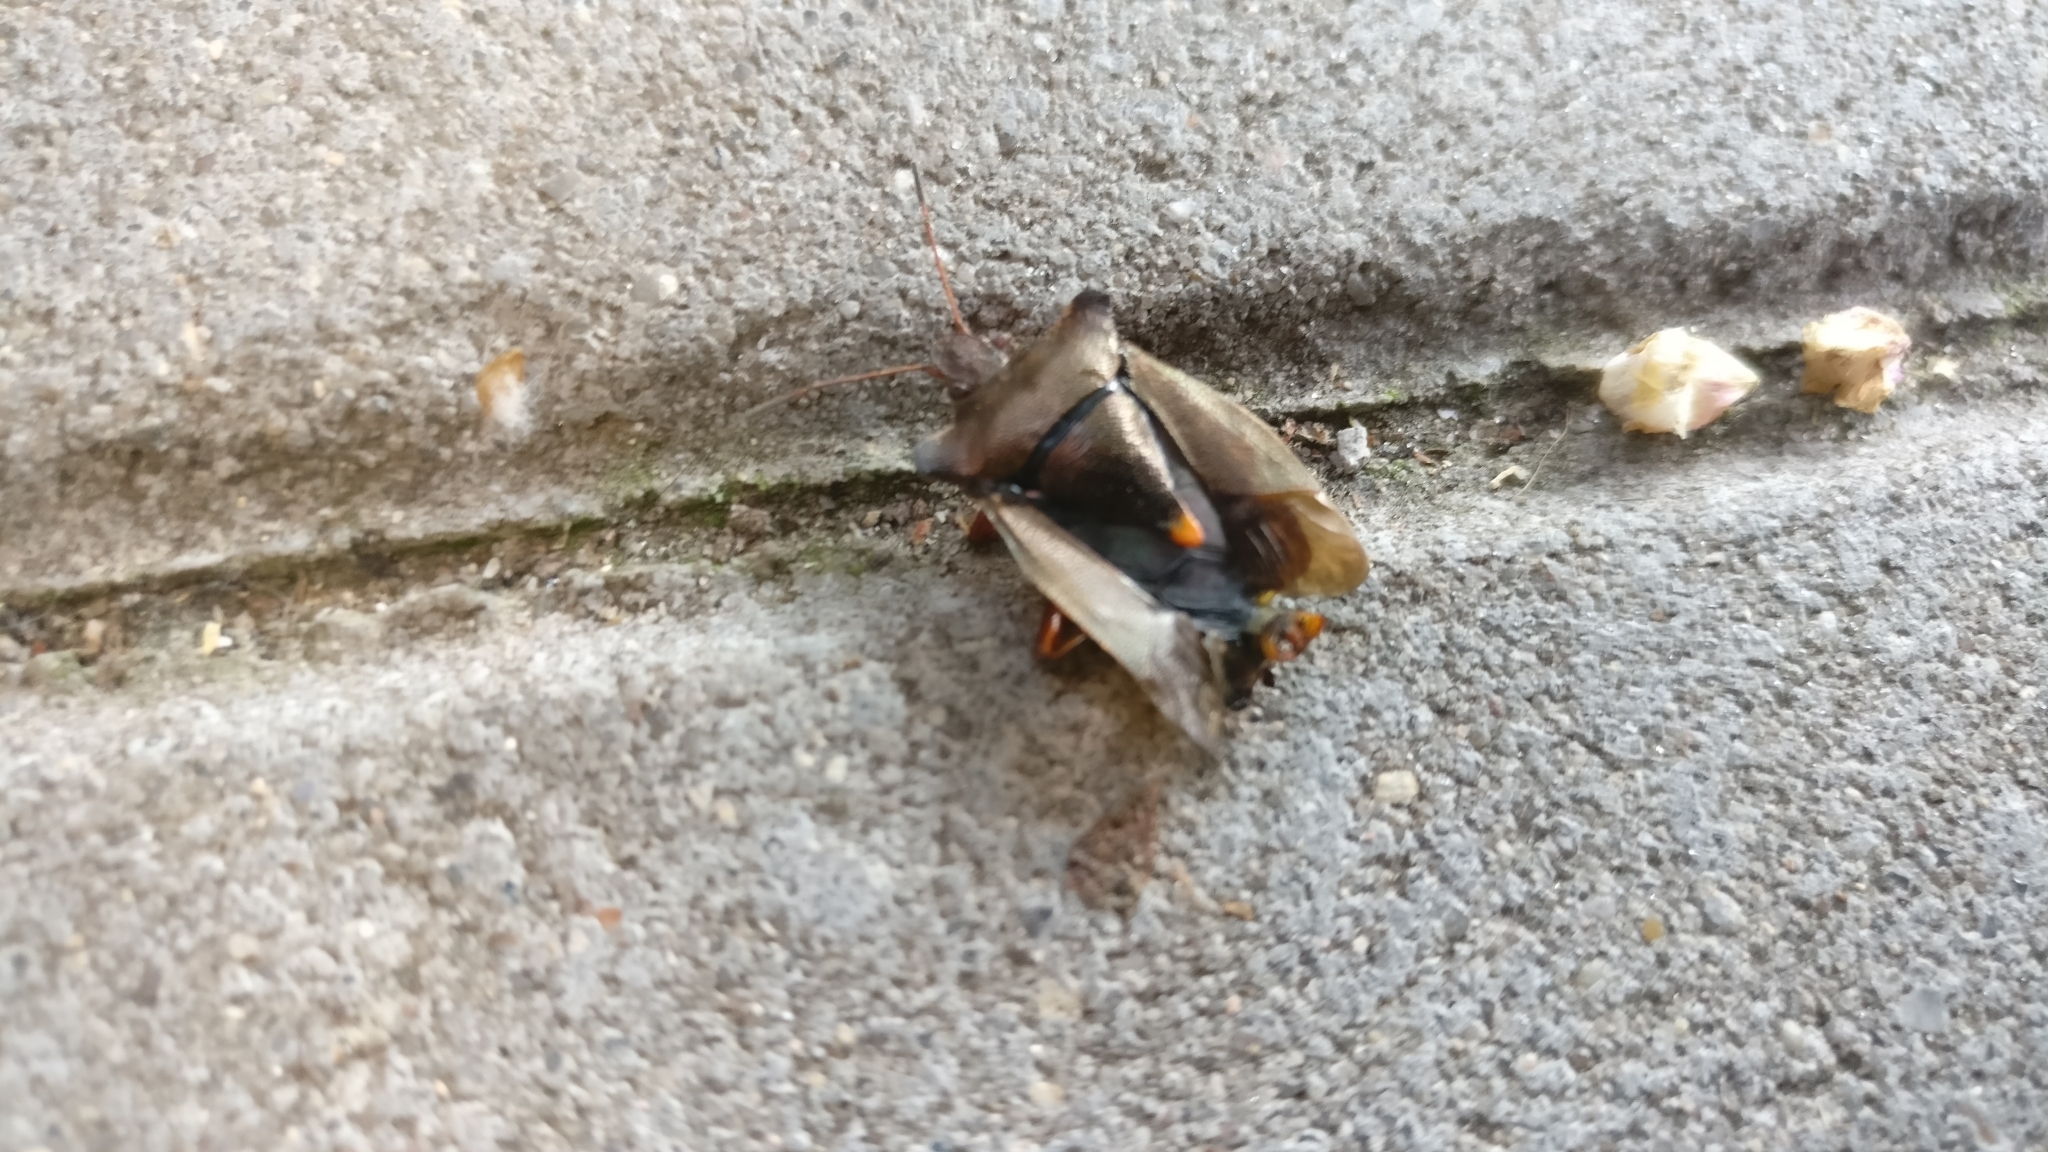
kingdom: Animalia
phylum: Arthropoda
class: Insecta
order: Hemiptera
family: Pentatomidae
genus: Pentatoma
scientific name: Pentatoma rufipes
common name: Forest bug
